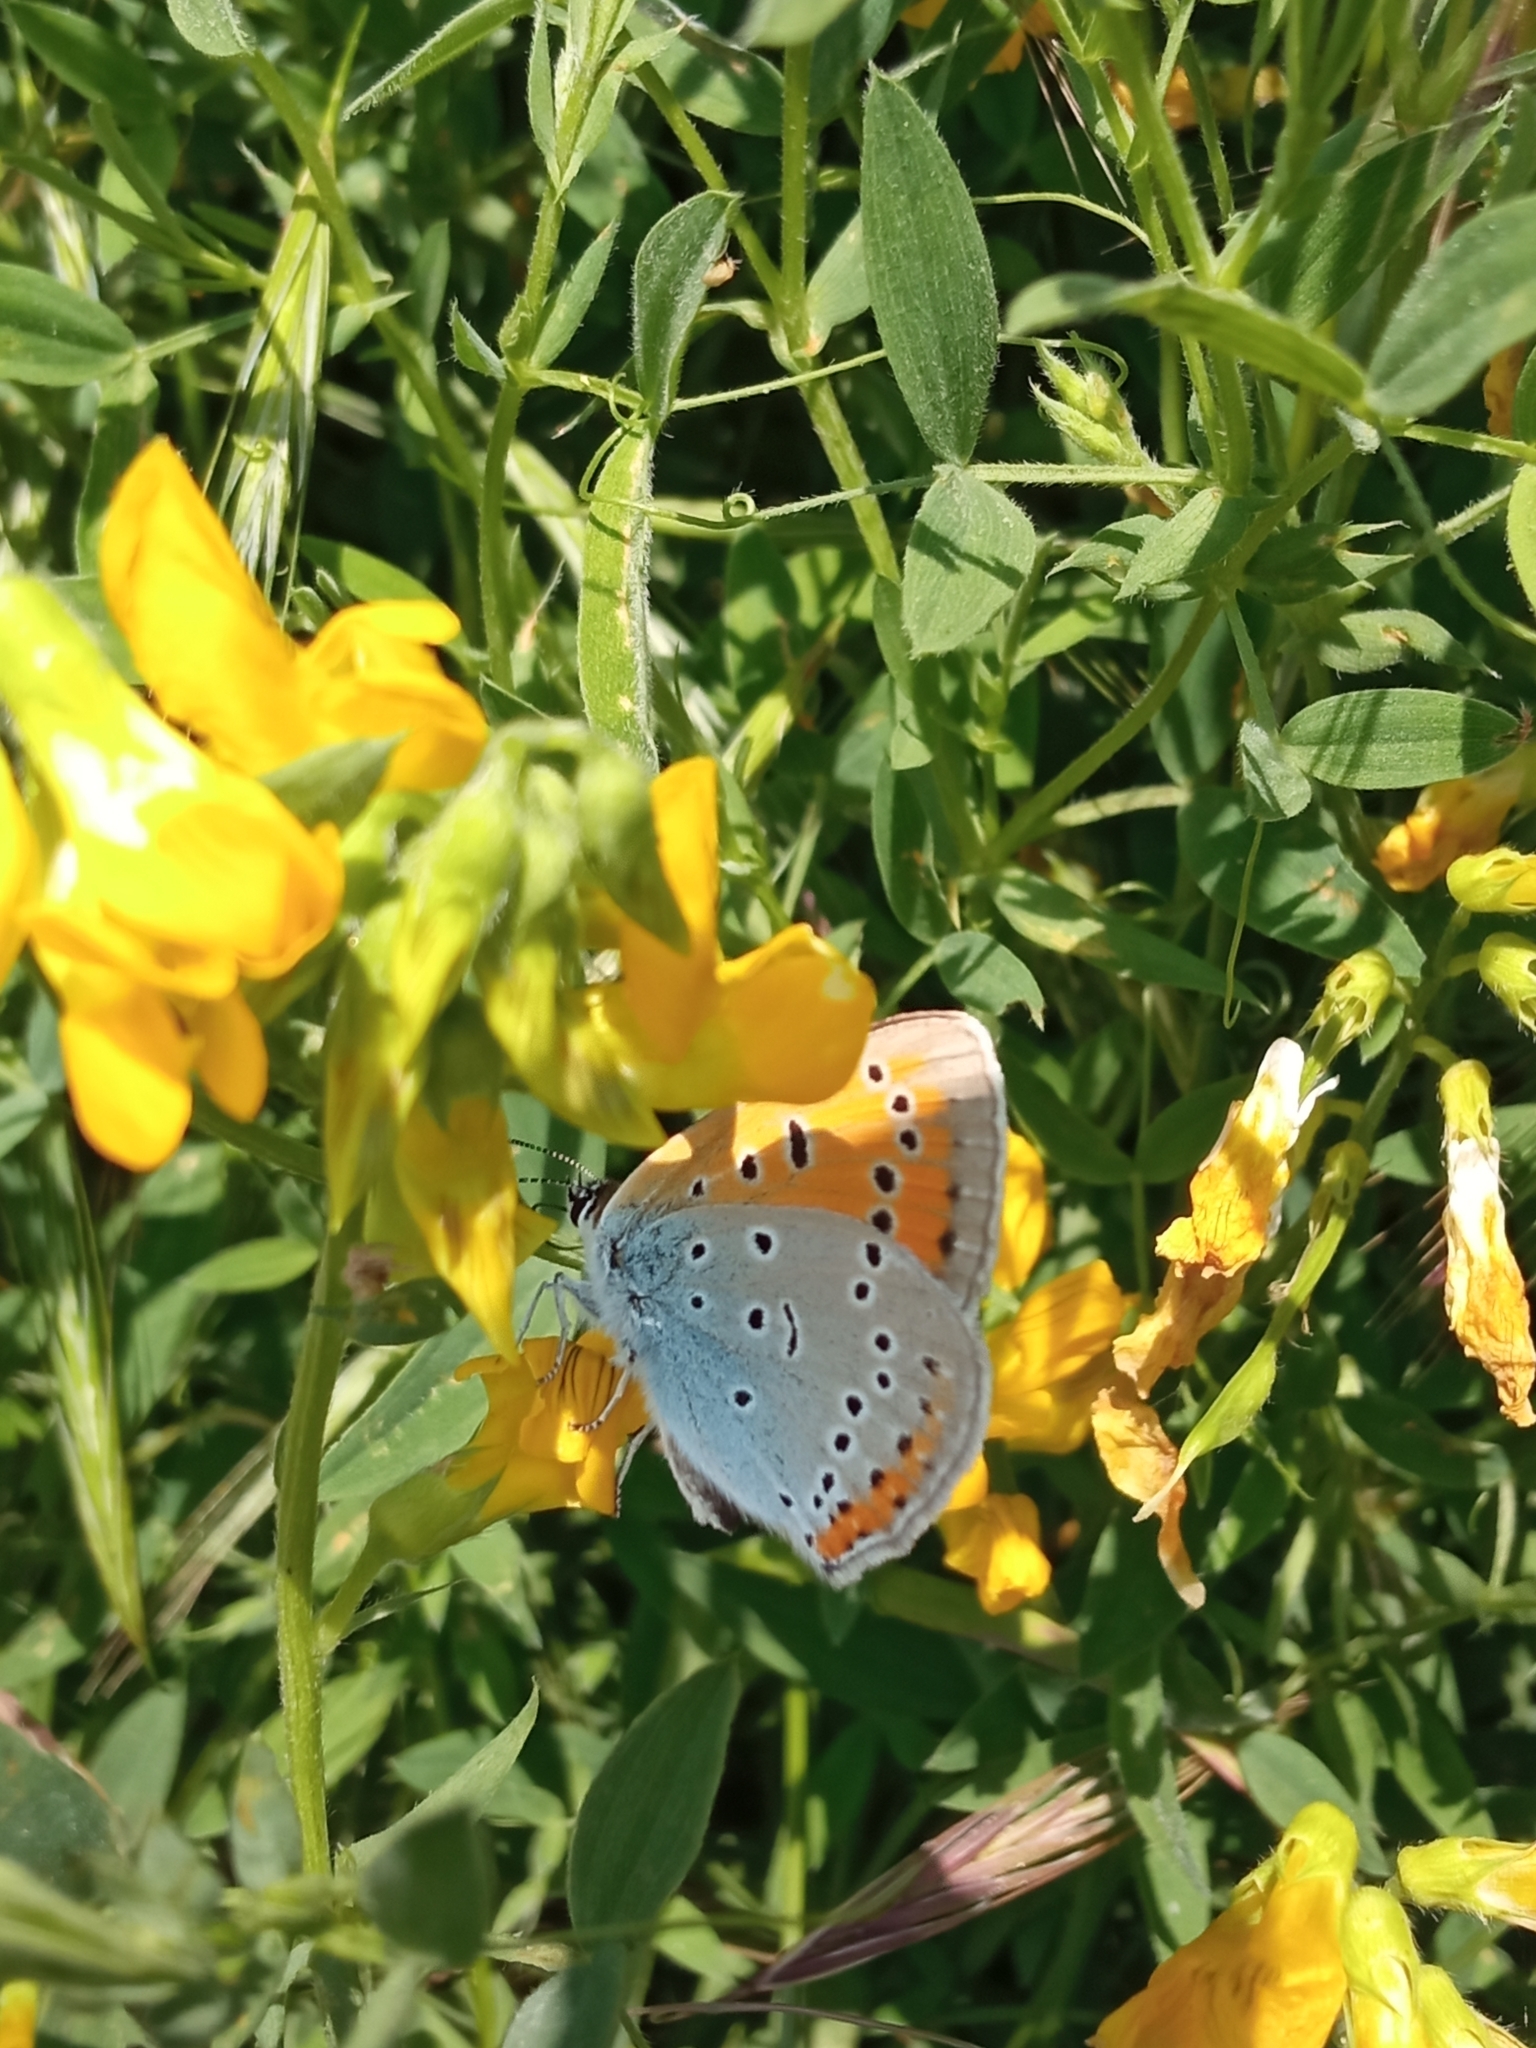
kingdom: Animalia
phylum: Arthropoda
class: Insecta
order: Lepidoptera
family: Lycaenidae
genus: Lycaena
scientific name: Lycaena dispar
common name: Large copper
